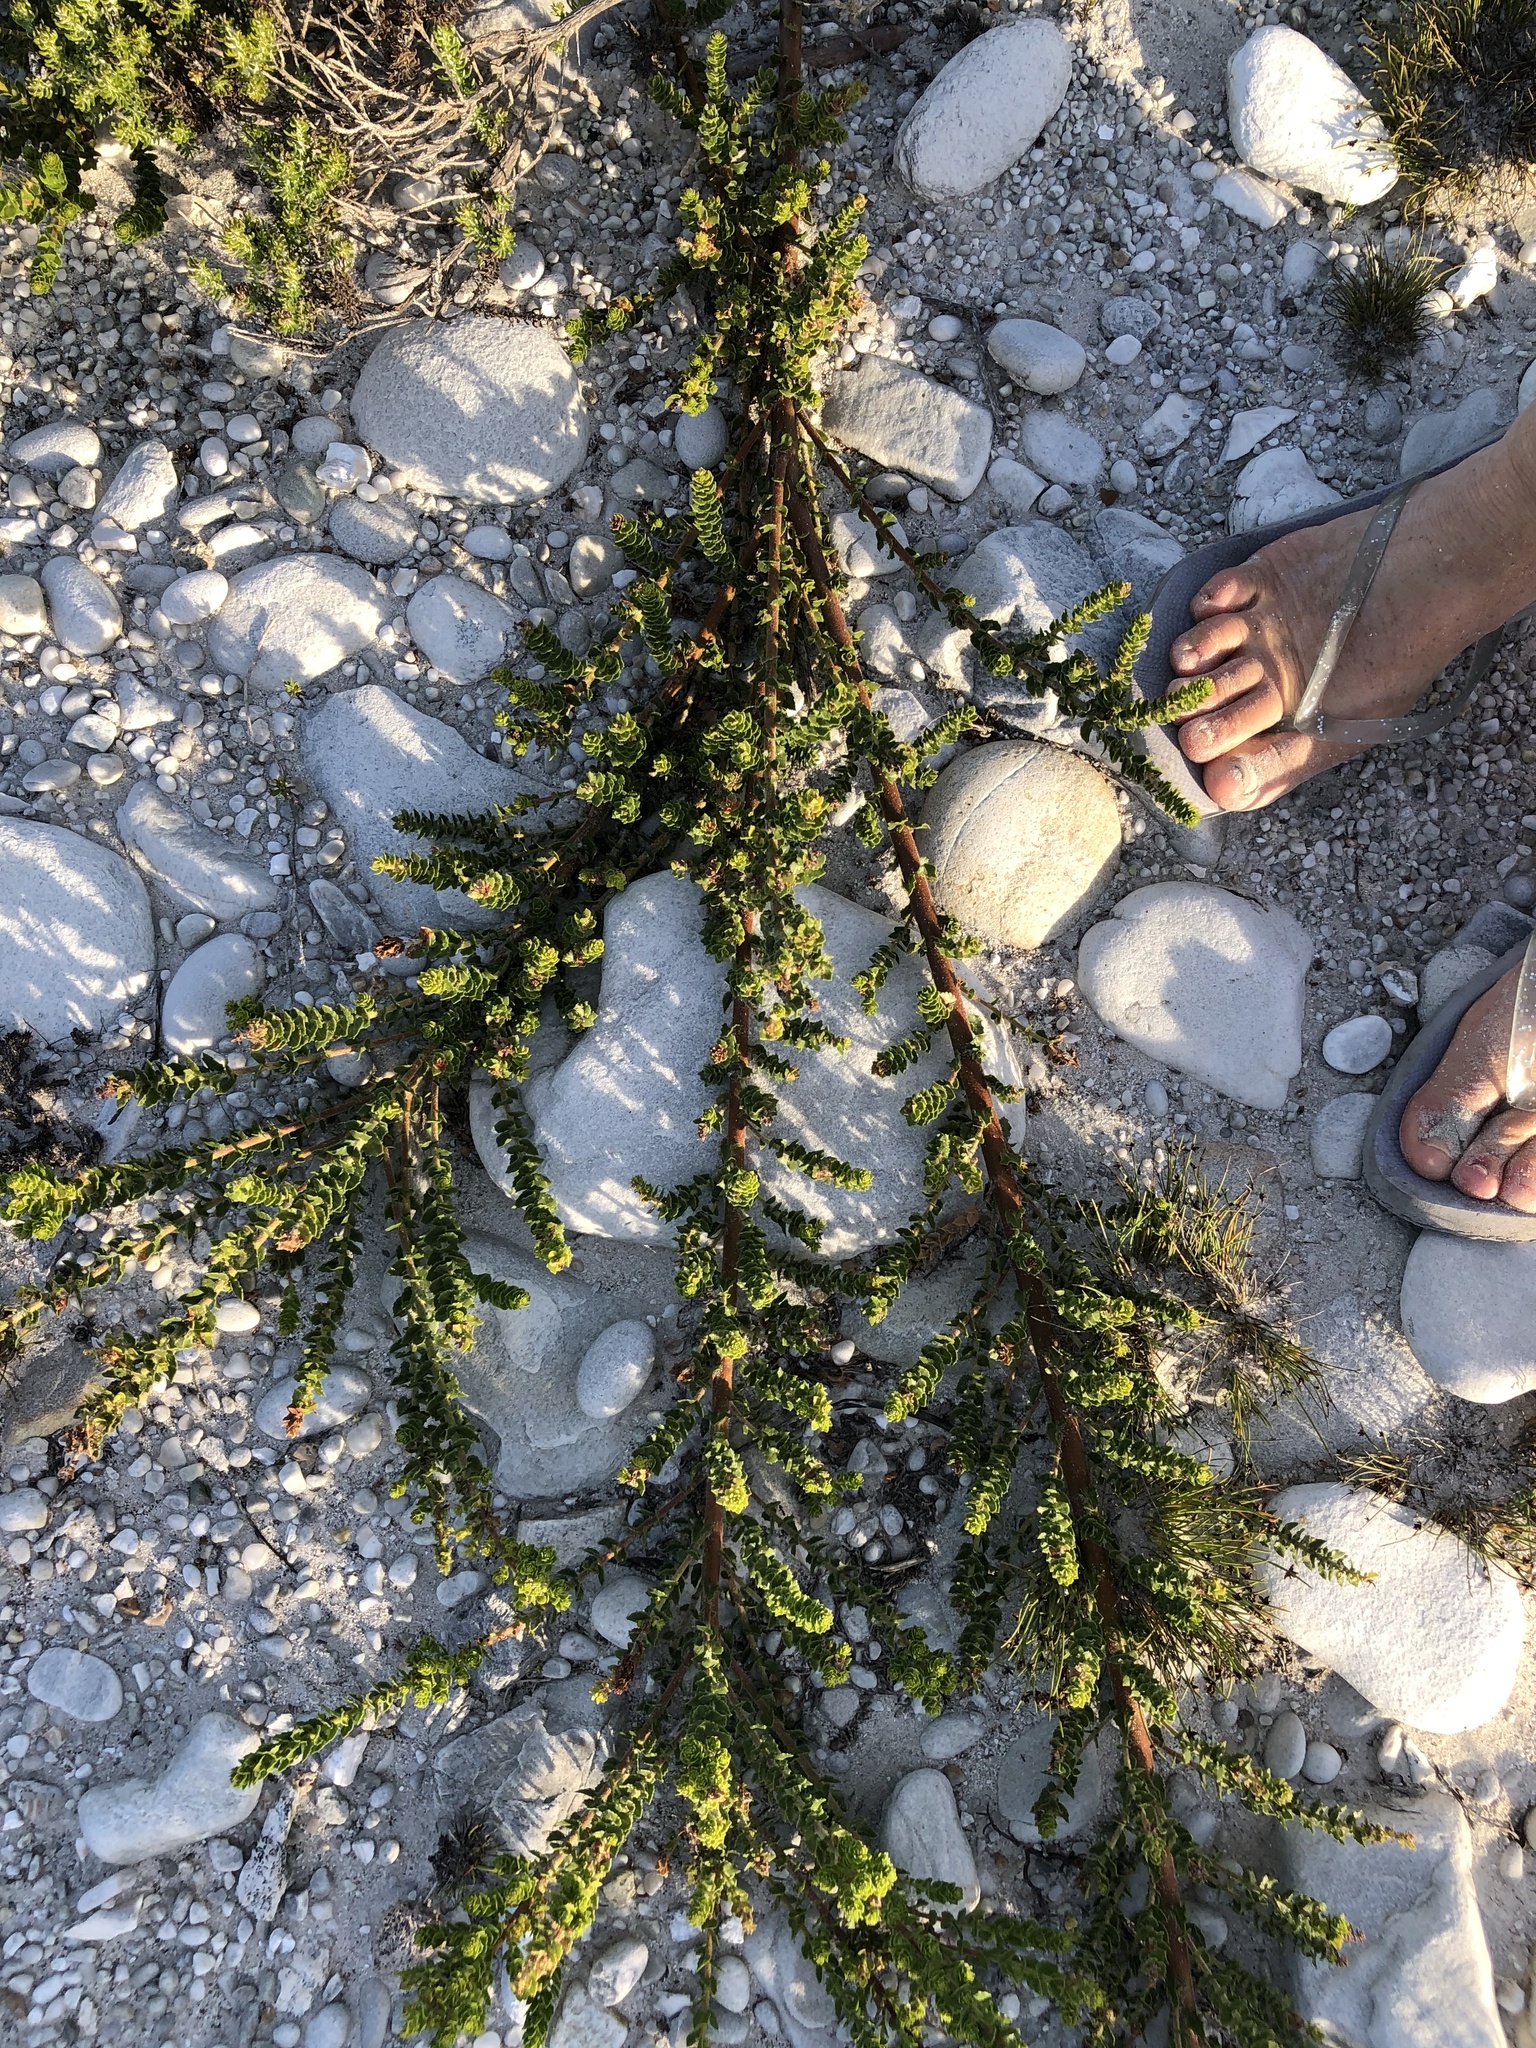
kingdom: Plantae
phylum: Tracheophyta
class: Magnoliopsida
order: Fagales
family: Myricaceae
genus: Morella
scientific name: Morella cordifolia
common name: Waxberry
